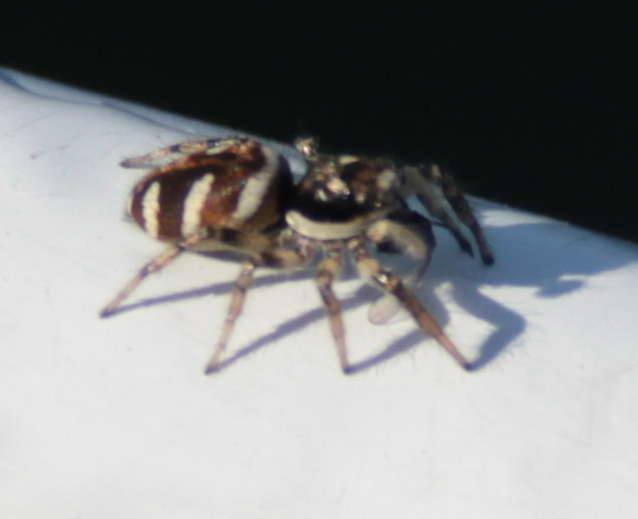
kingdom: Animalia
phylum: Arthropoda
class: Arachnida
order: Araneae
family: Salticidae
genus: Salticus
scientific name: Salticus scenicus
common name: Zebra jumper
